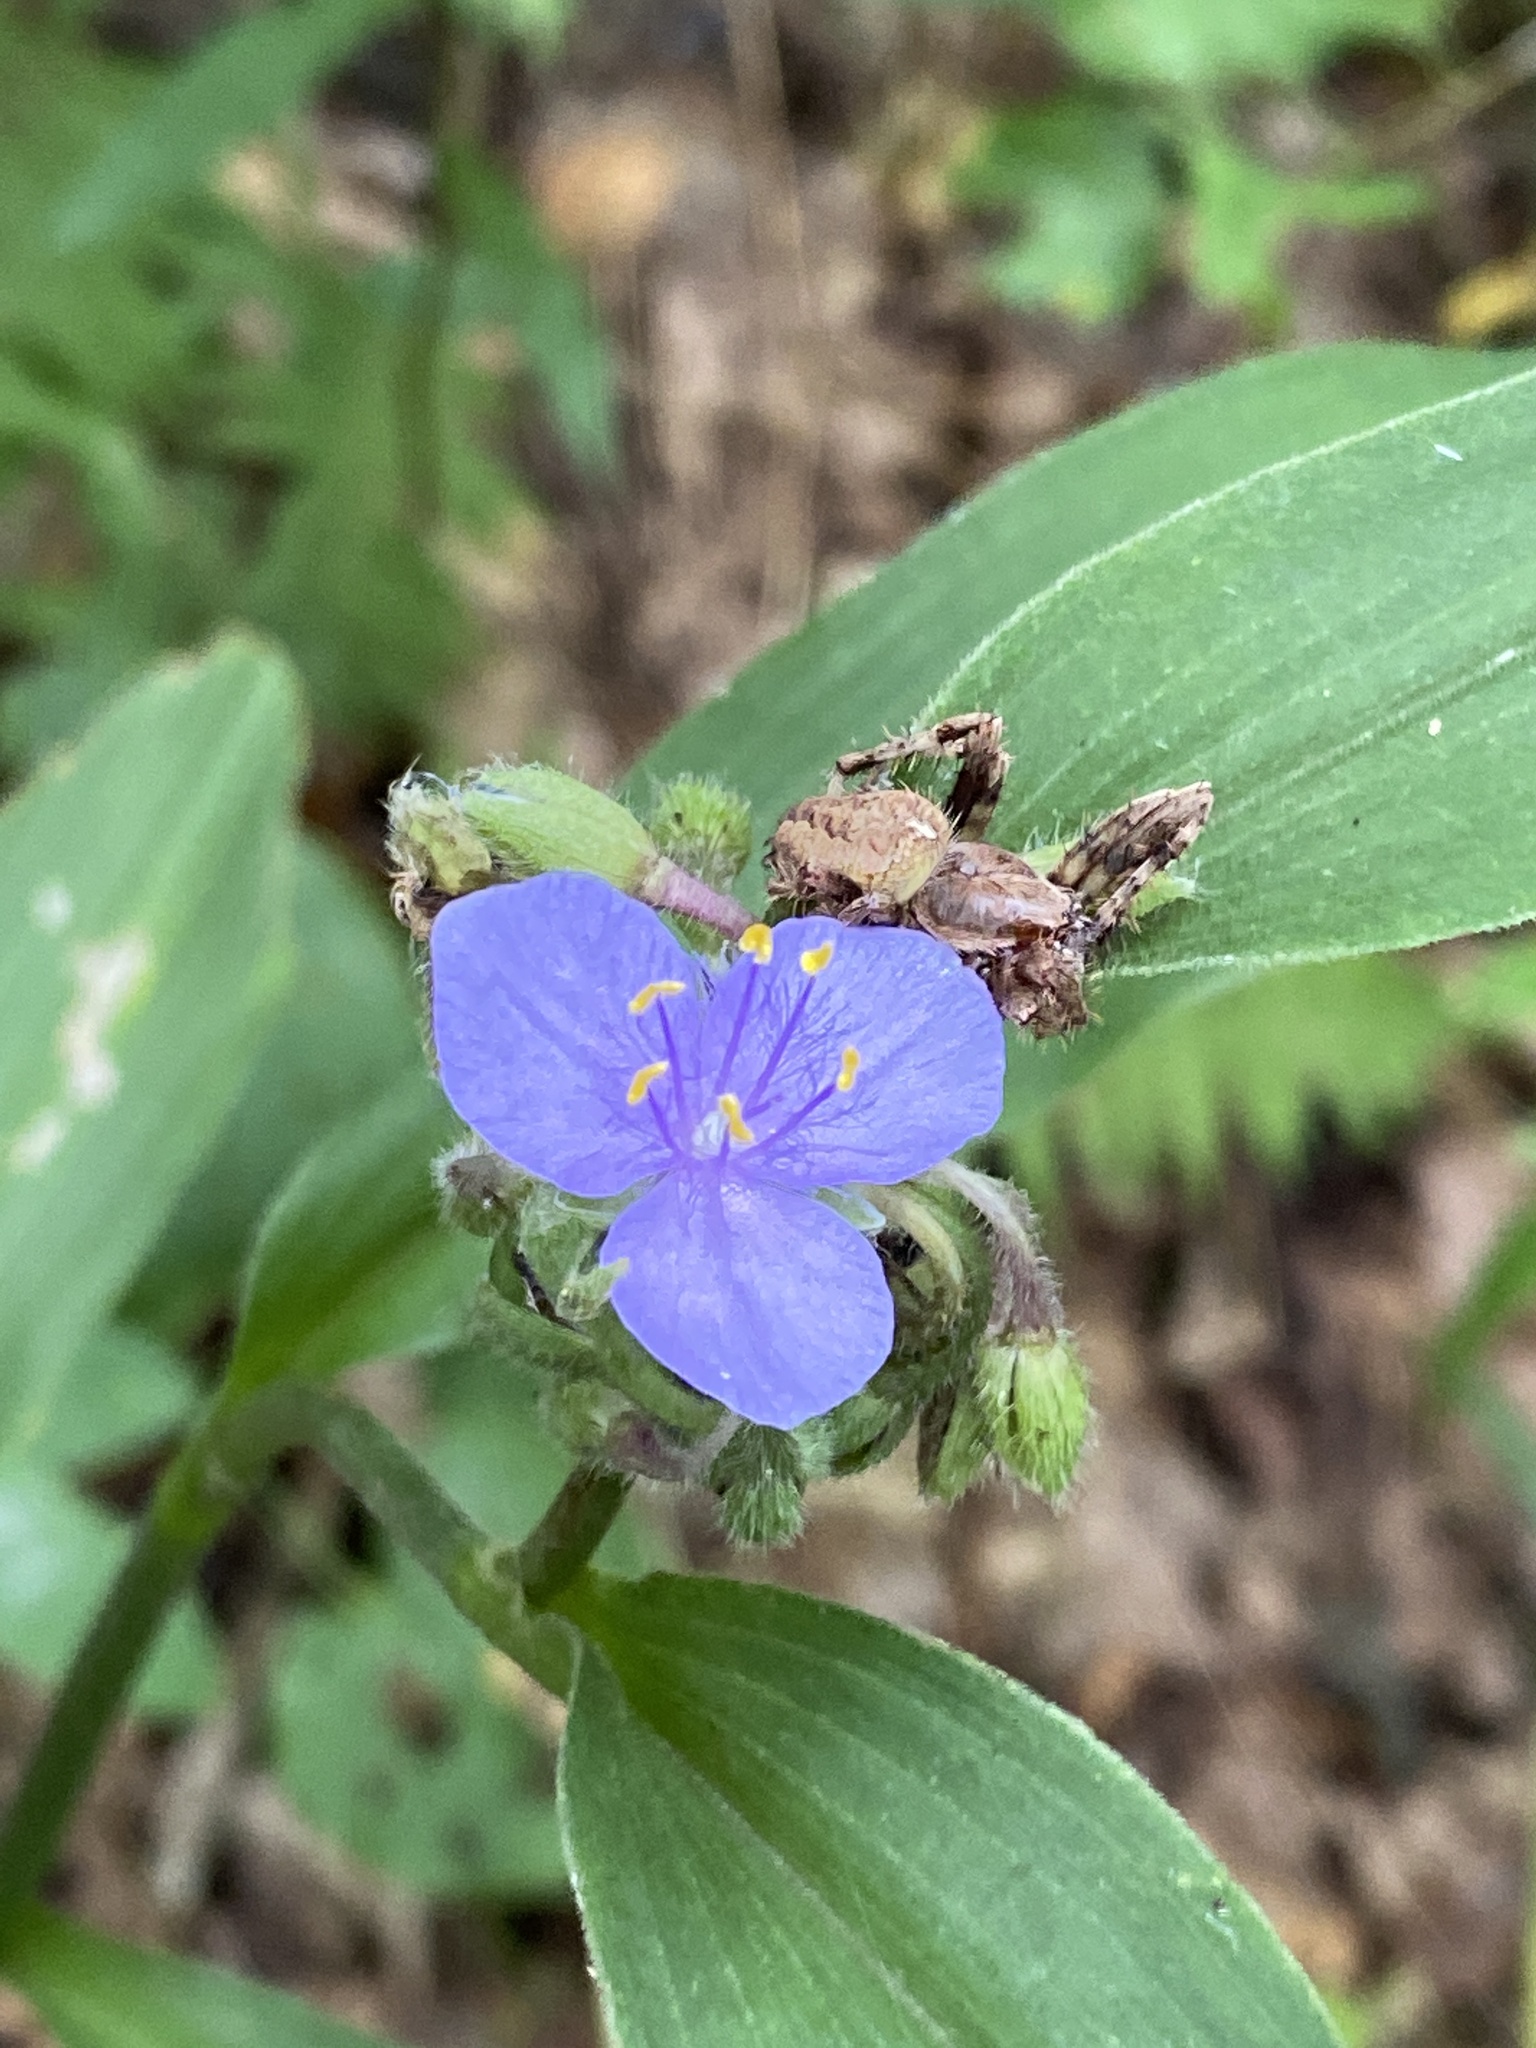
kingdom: Plantae
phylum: Tracheophyta
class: Liliopsida
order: Commelinales
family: Commelinaceae
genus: Tradescantia
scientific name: Tradescantia subaspera
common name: Wide-leaf spiderwort
